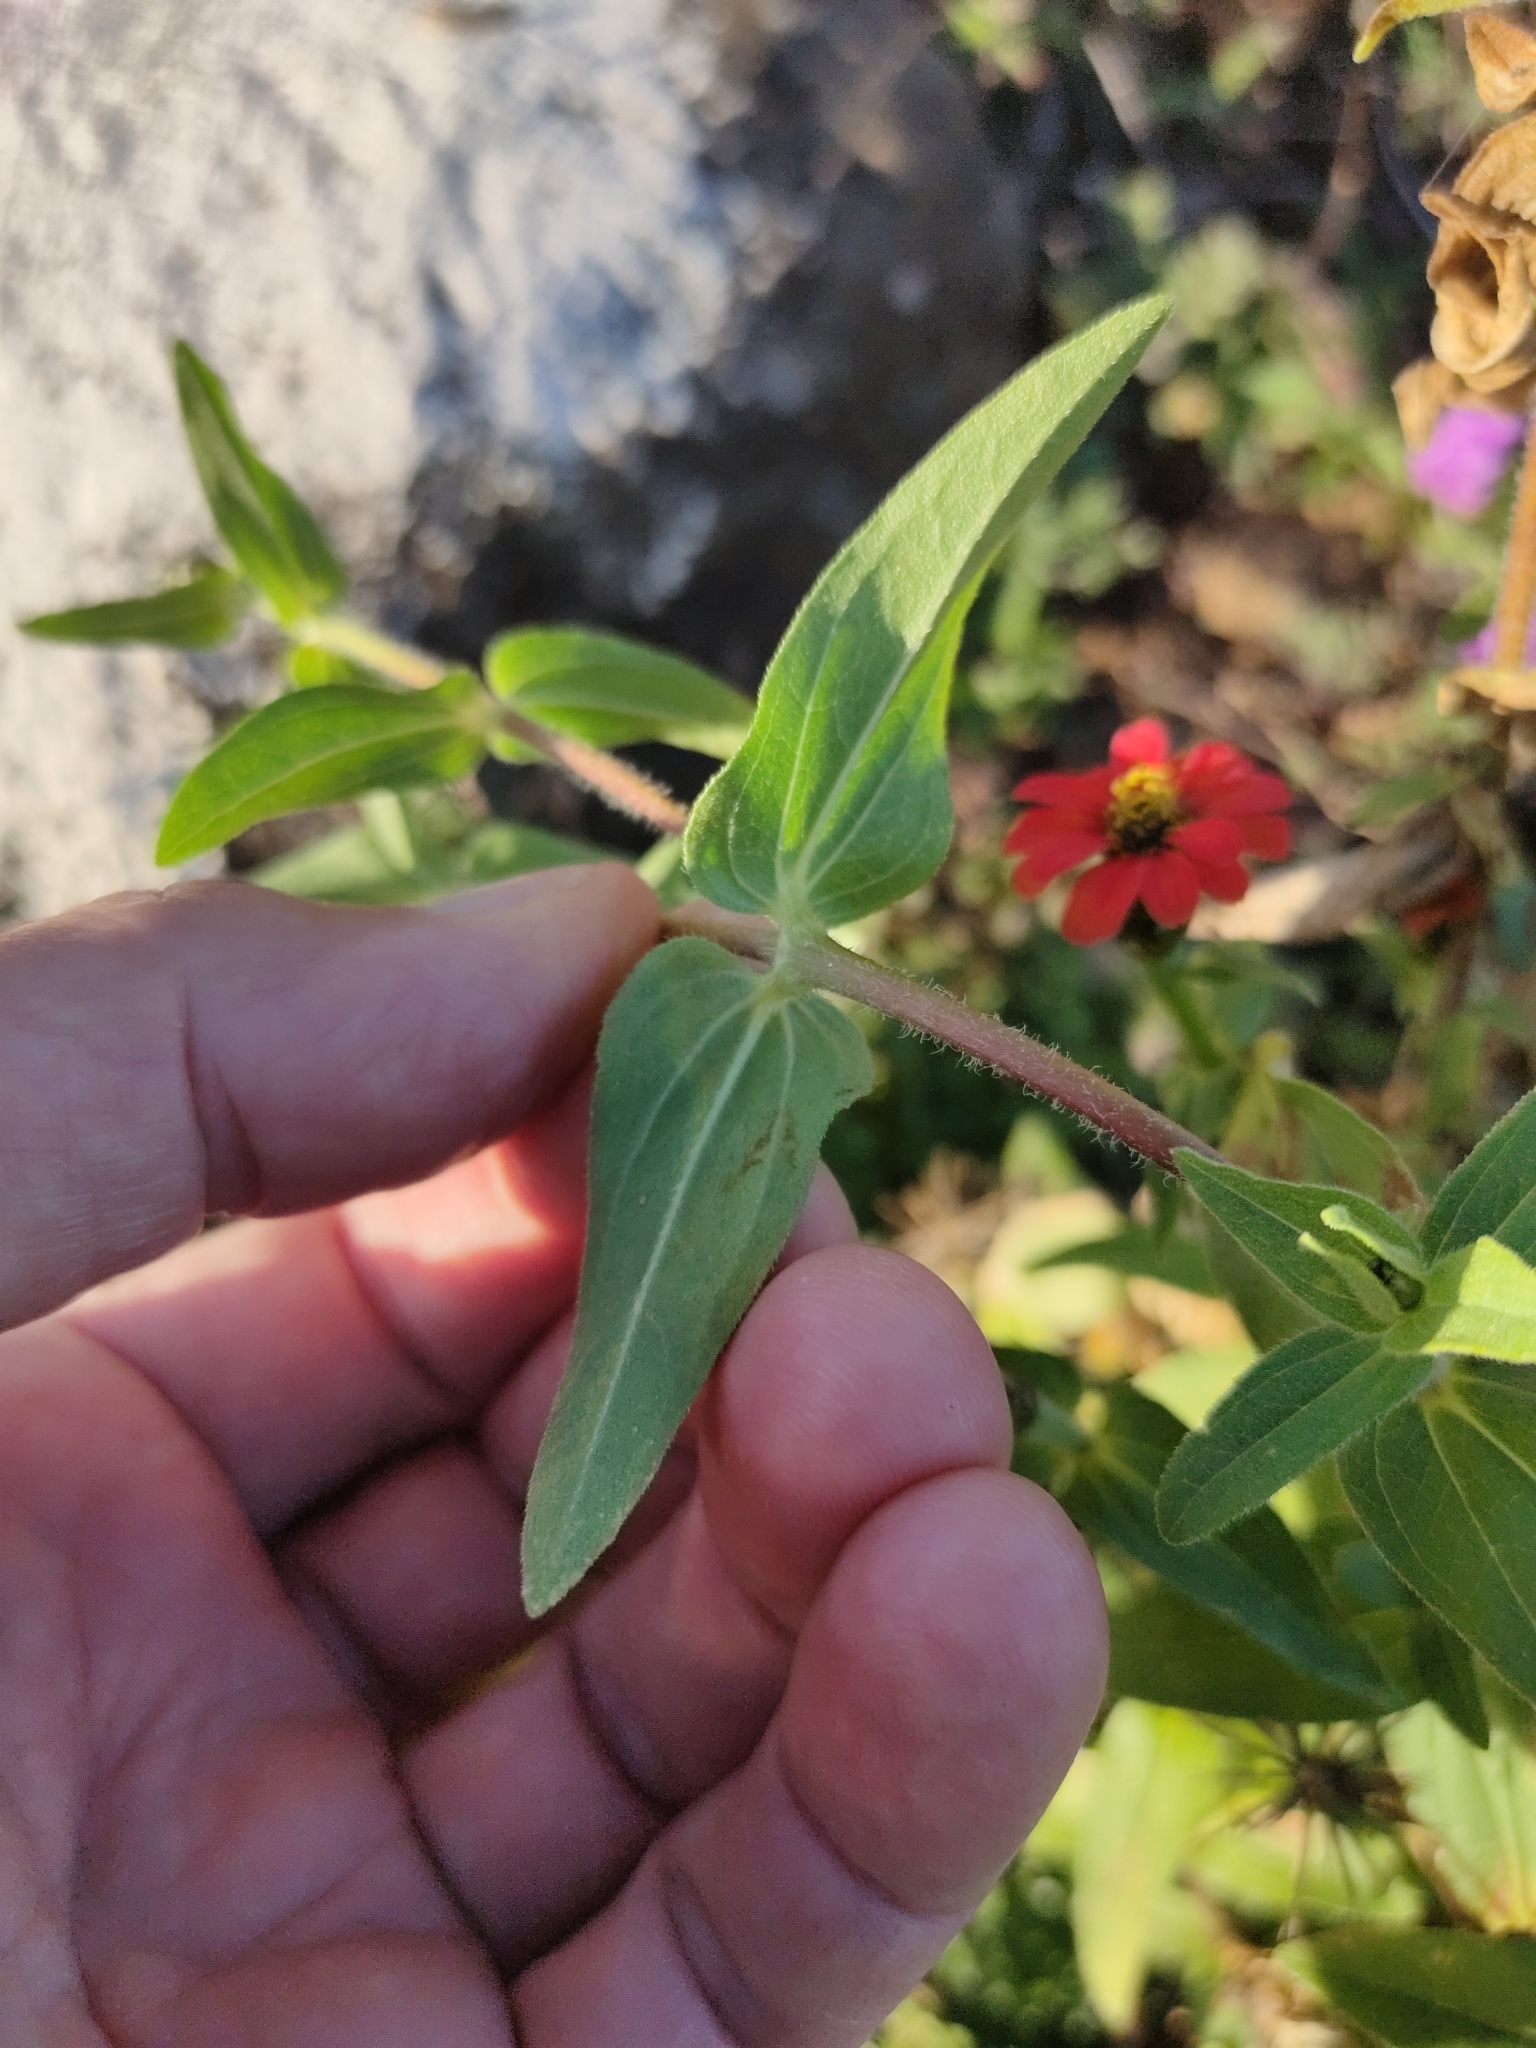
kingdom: Plantae
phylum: Tracheophyta
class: Magnoliopsida
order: Asterales
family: Asteraceae
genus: Zinnia
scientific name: Zinnia peruviana
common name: Peruvian zinnia
